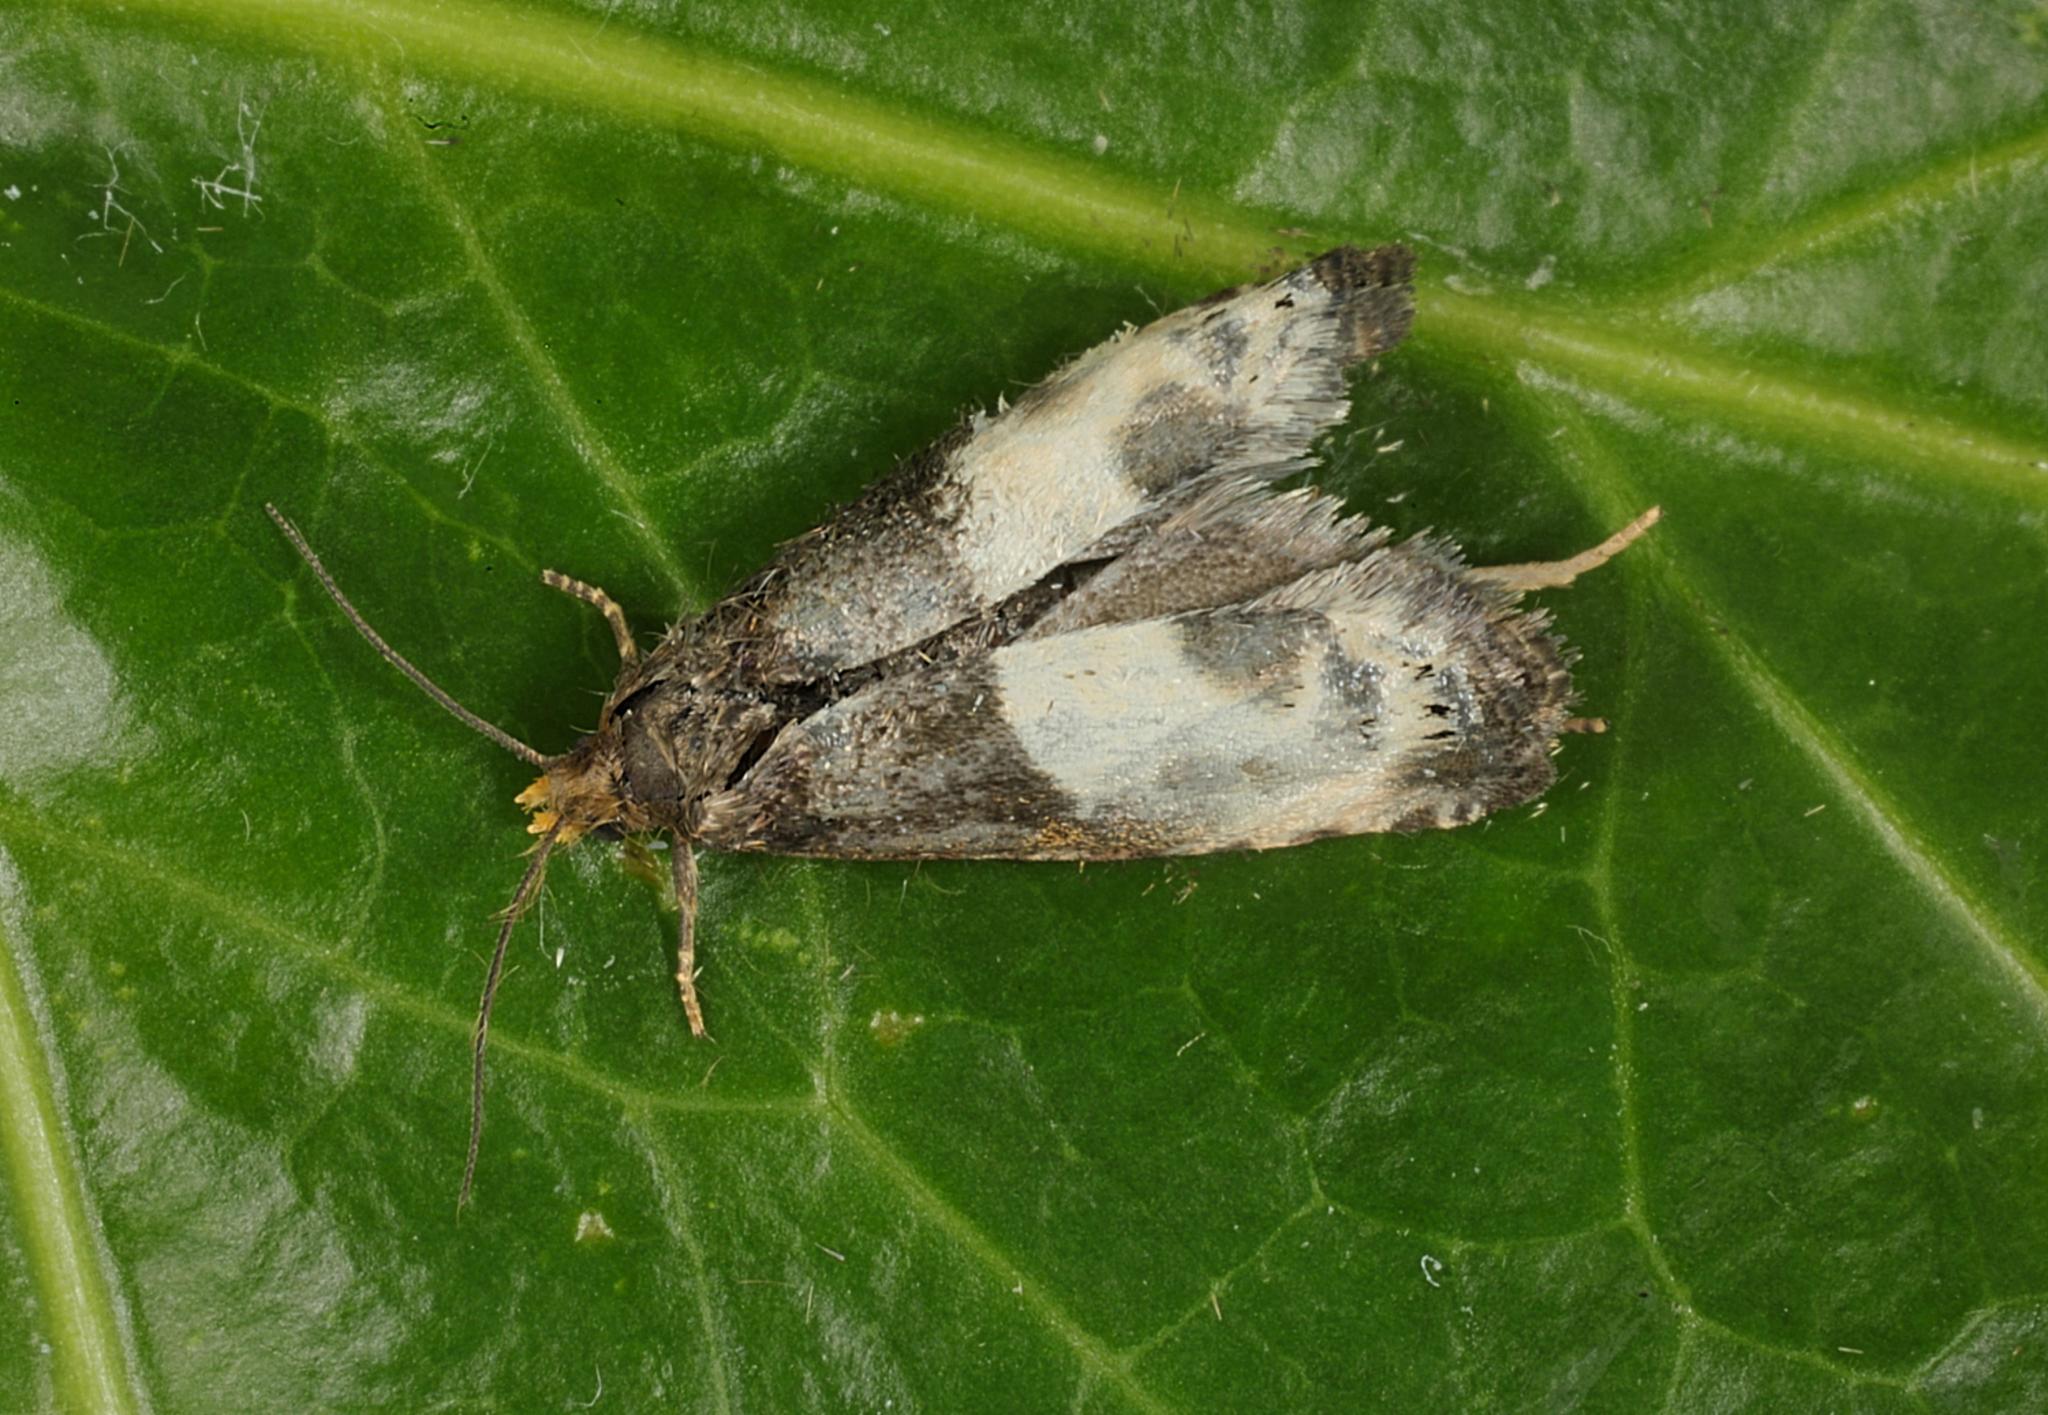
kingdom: Animalia
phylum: Arthropoda
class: Insecta
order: Lepidoptera
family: Tortricidae
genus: Notocelia
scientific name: Notocelia cynosbatella
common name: Yellow-faced bell moth
